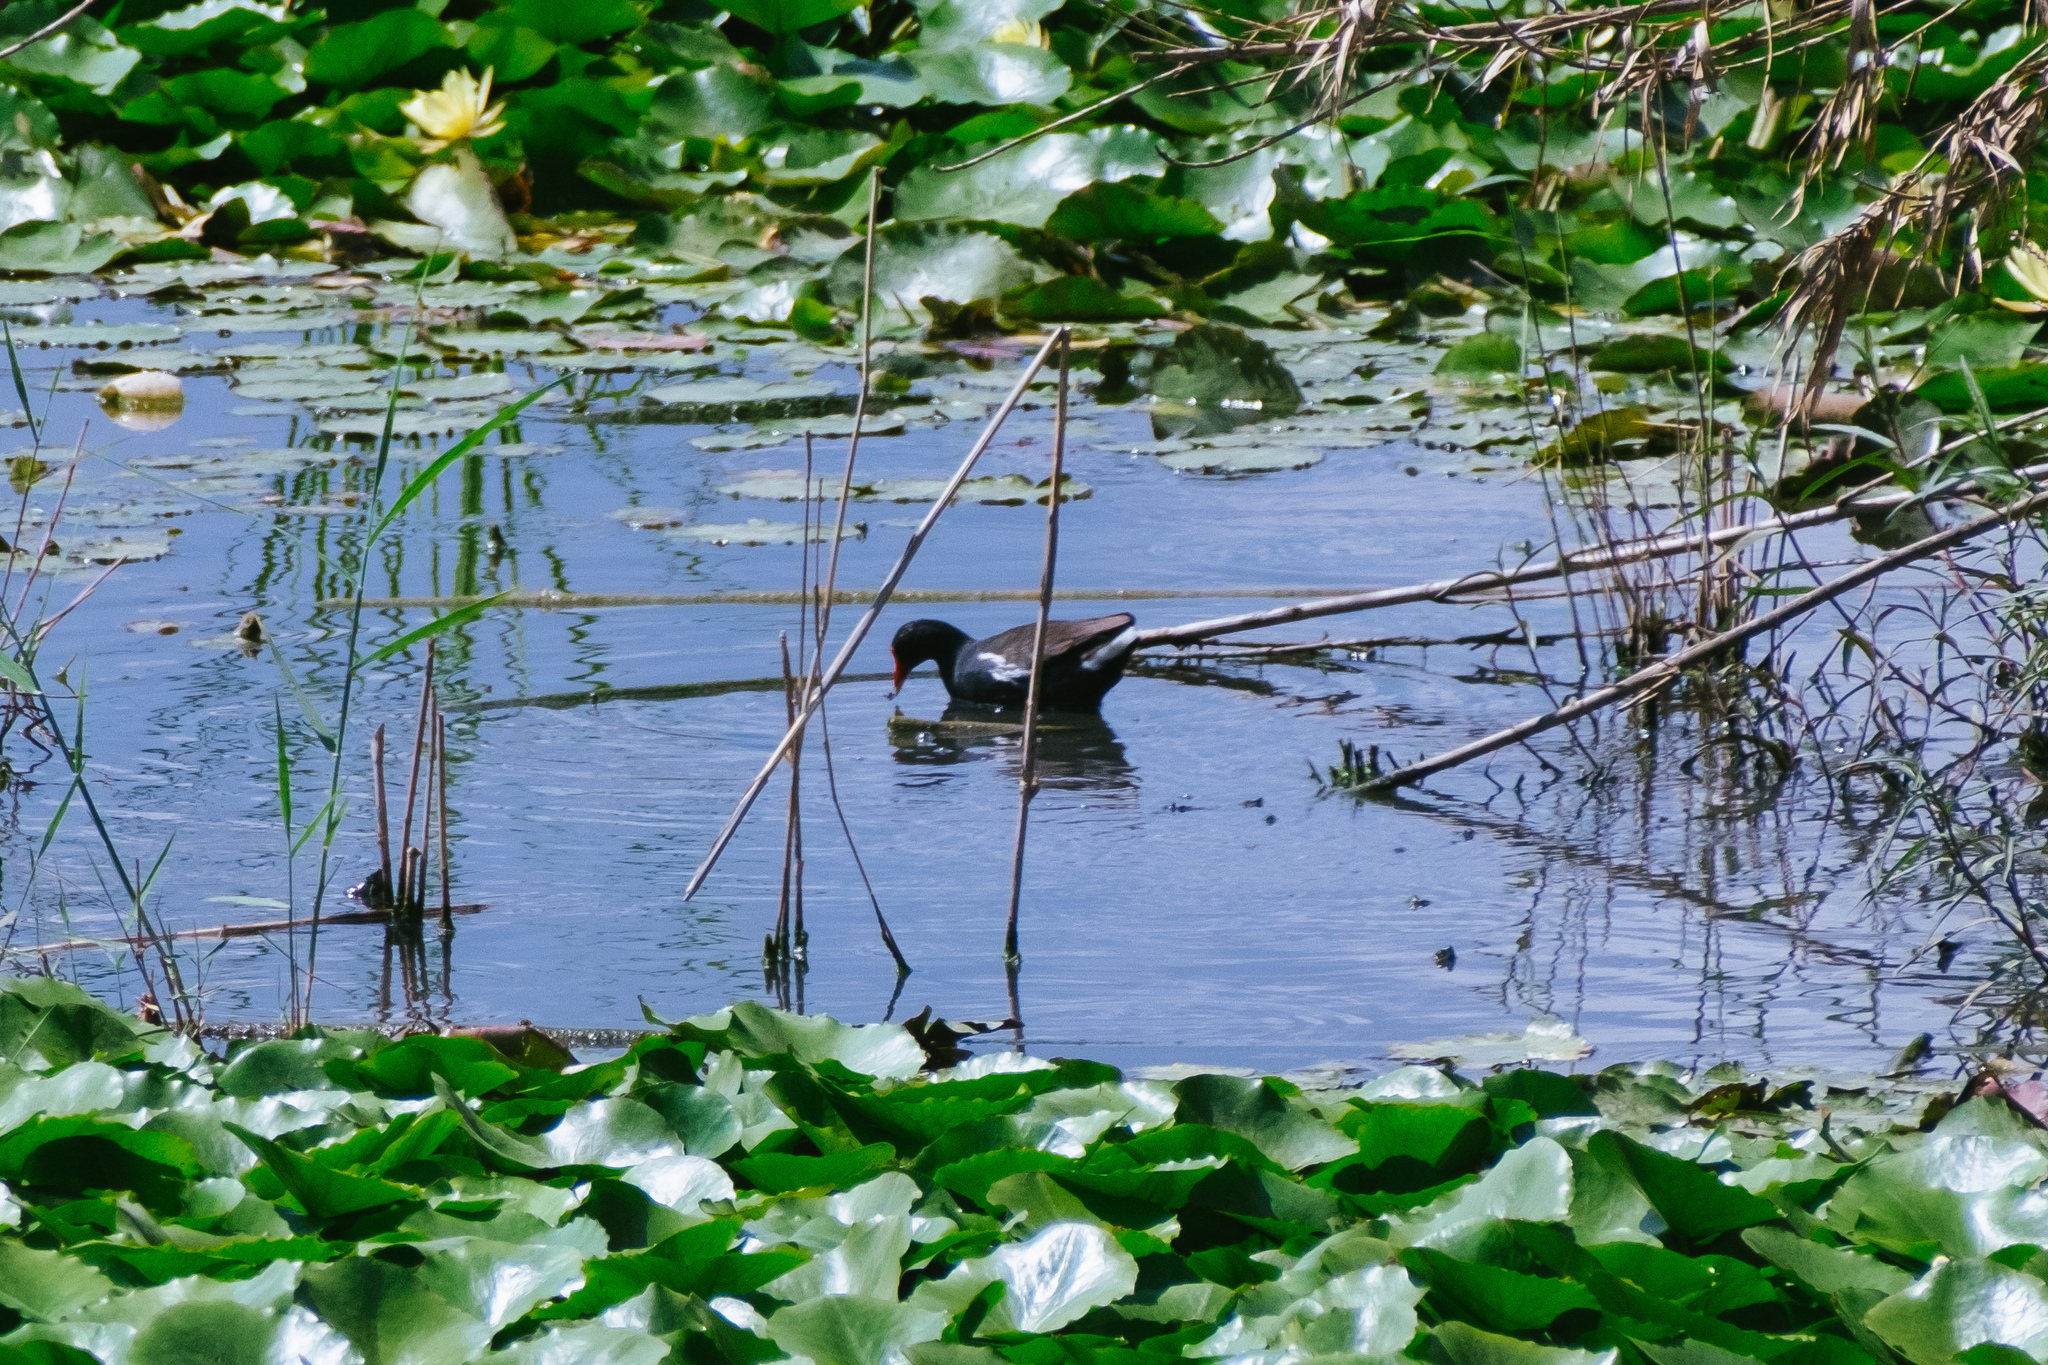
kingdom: Animalia
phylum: Chordata
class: Aves
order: Gruiformes
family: Rallidae
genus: Gallinula
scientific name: Gallinula chloropus
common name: Common moorhen
